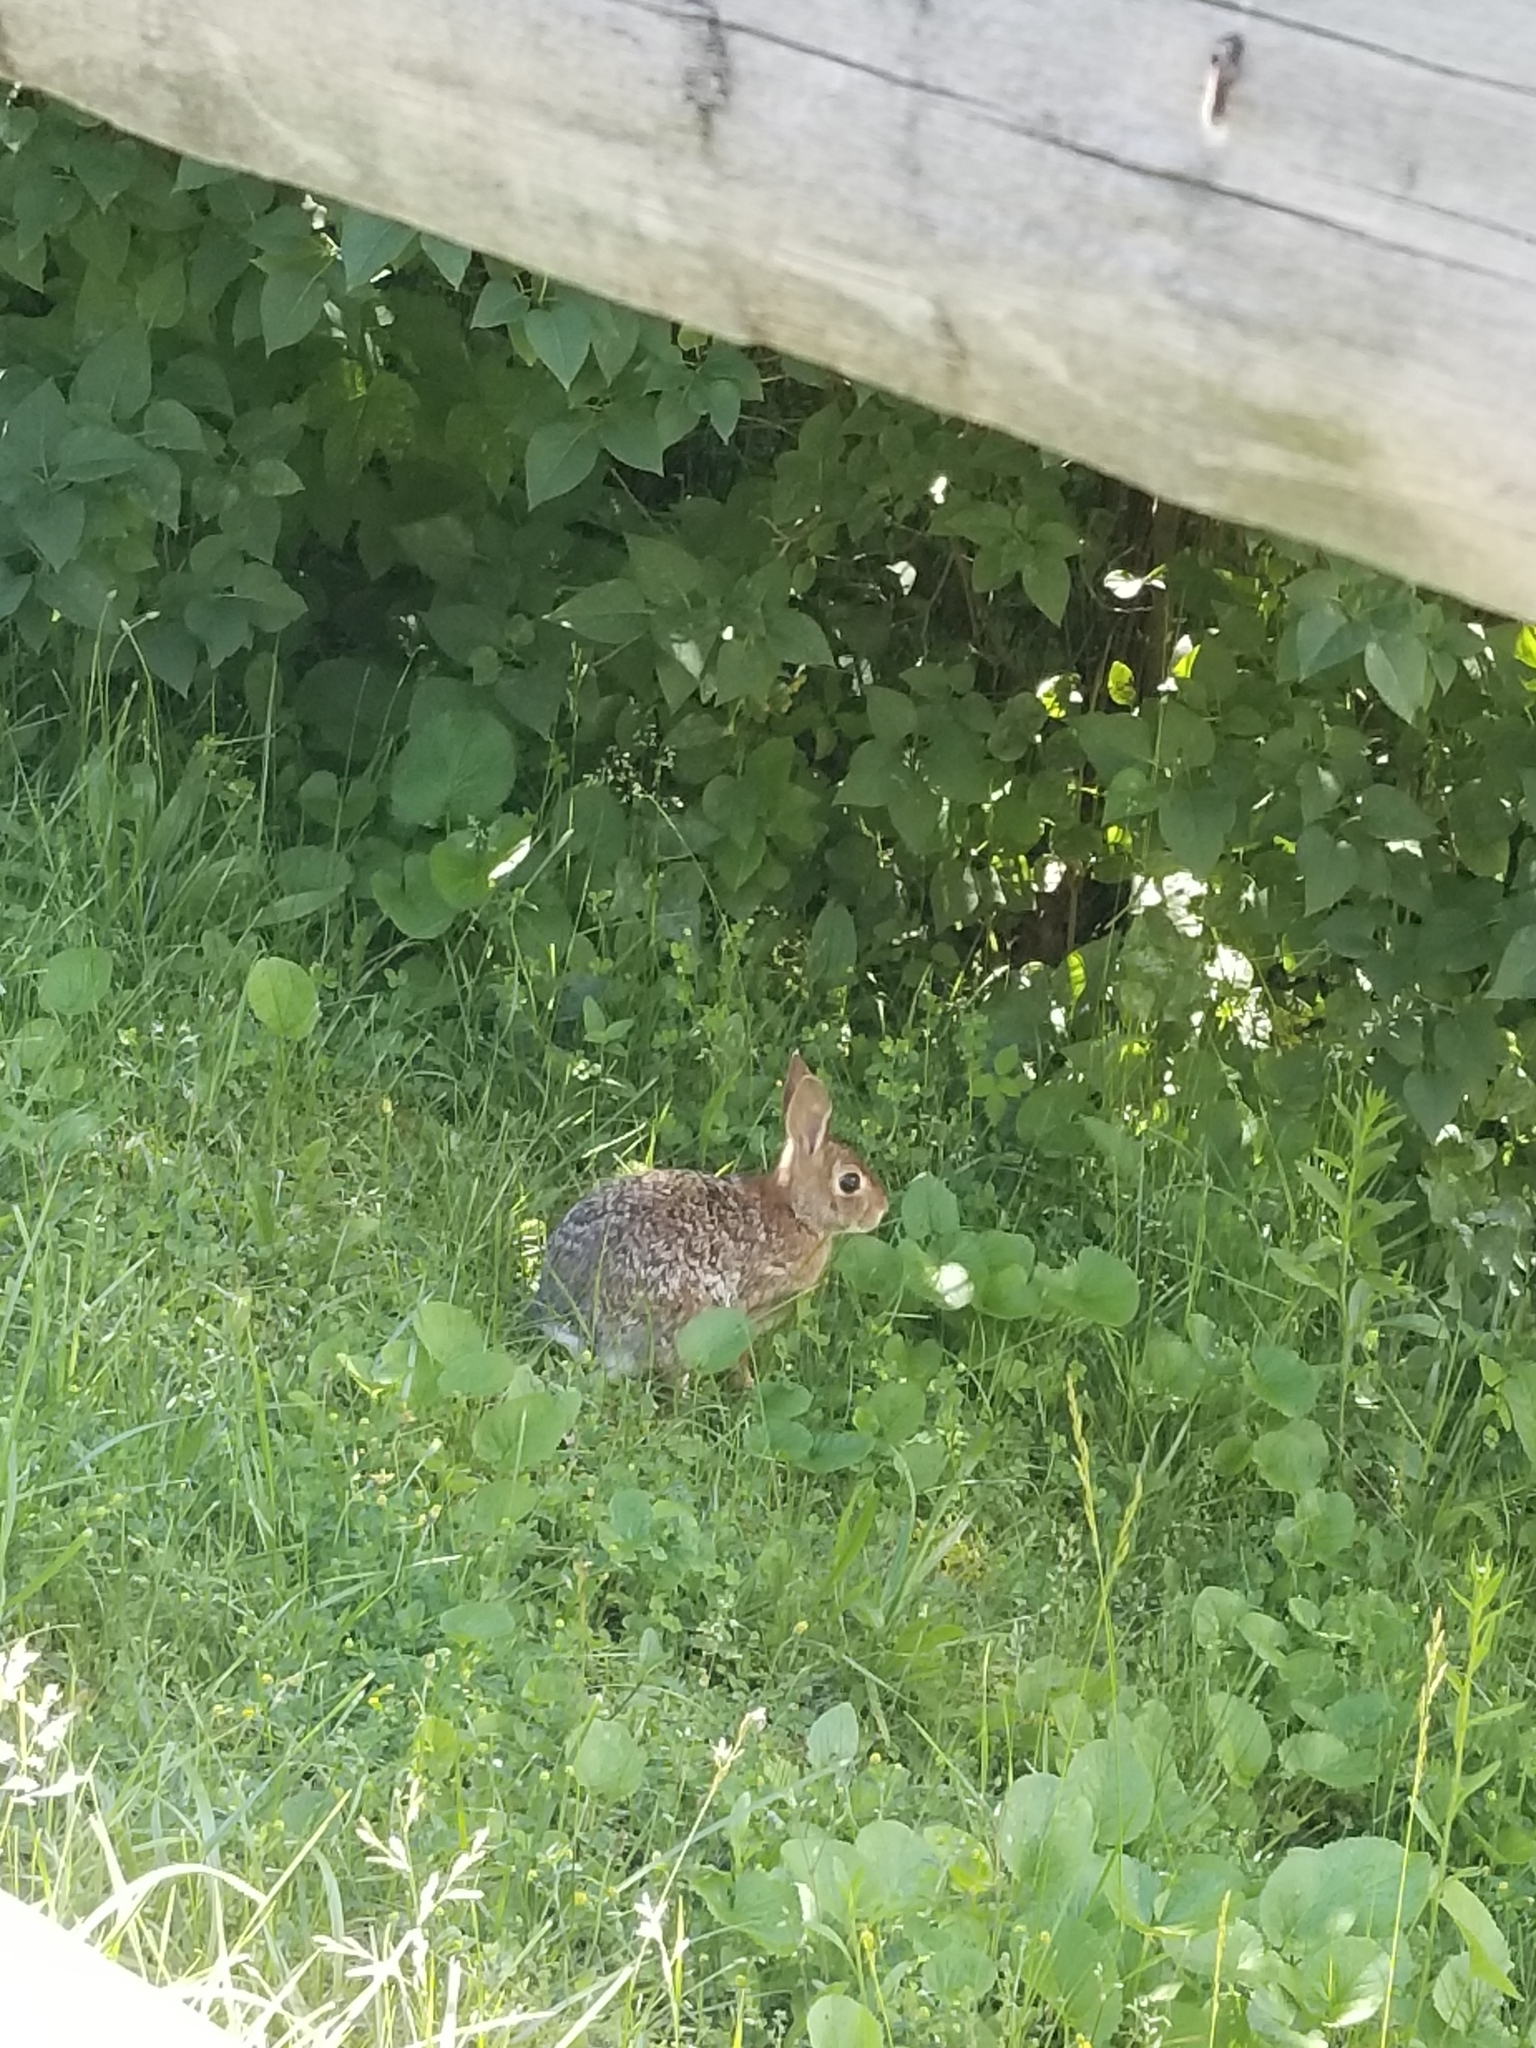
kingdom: Animalia
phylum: Chordata
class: Mammalia
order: Lagomorpha
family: Leporidae
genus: Sylvilagus
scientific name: Sylvilagus floridanus
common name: Eastern cottontail
